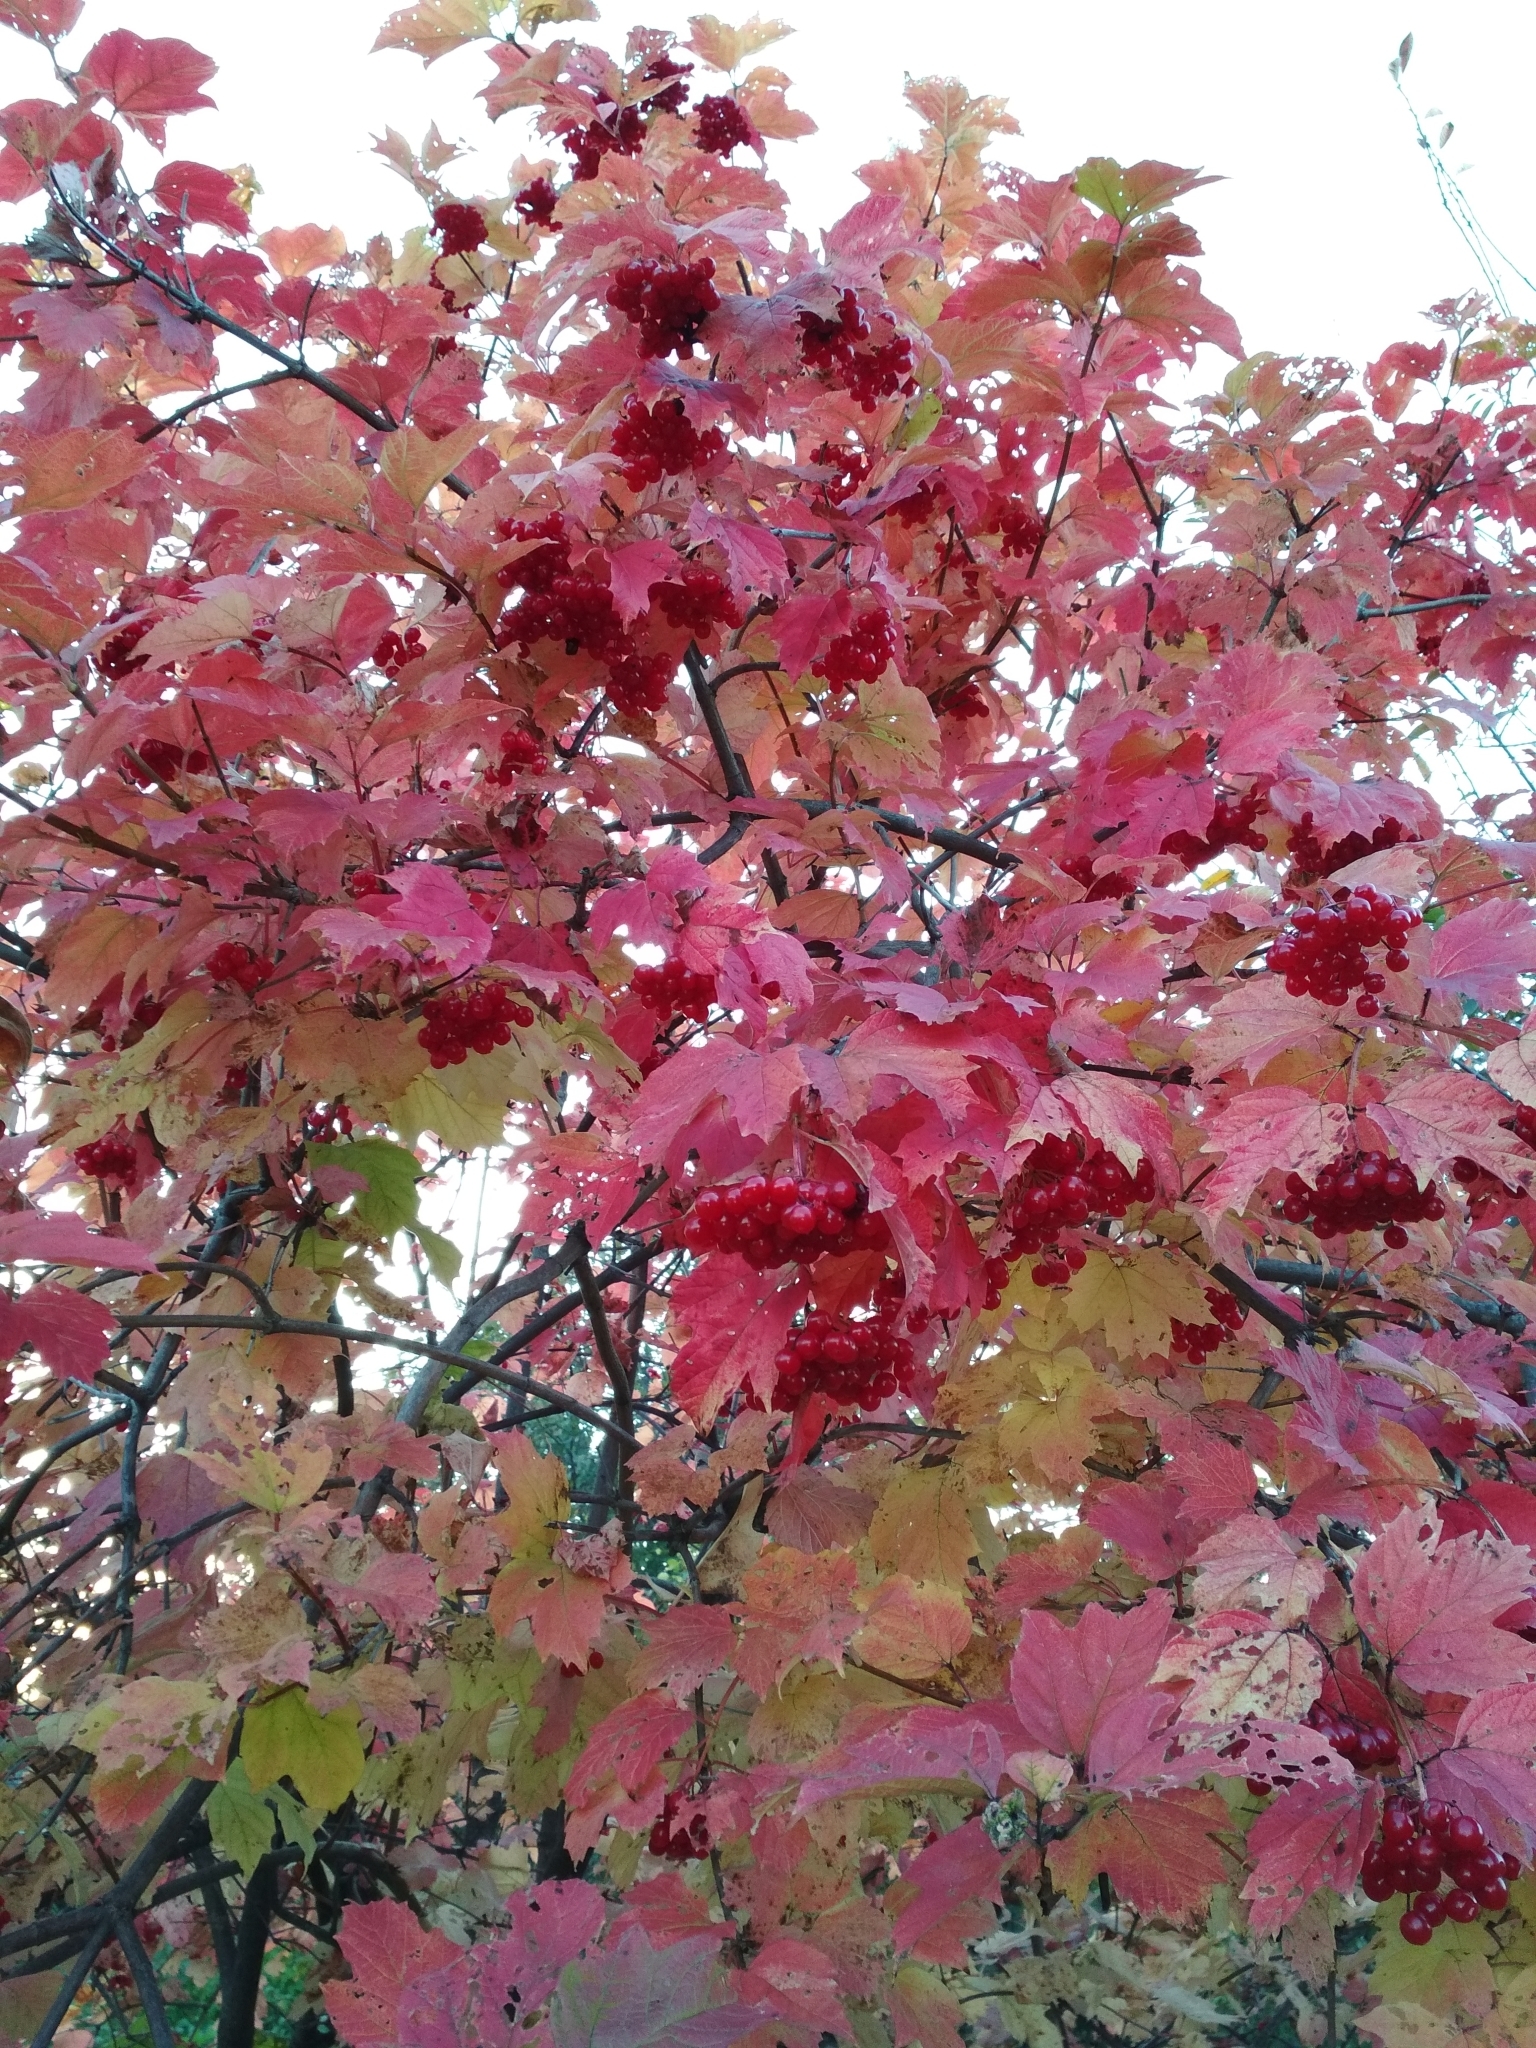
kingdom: Plantae
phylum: Tracheophyta
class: Magnoliopsida
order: Dipsacales
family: Viburnaceae
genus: Viburnum
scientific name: Viburnum opulus
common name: Guelder-rose
